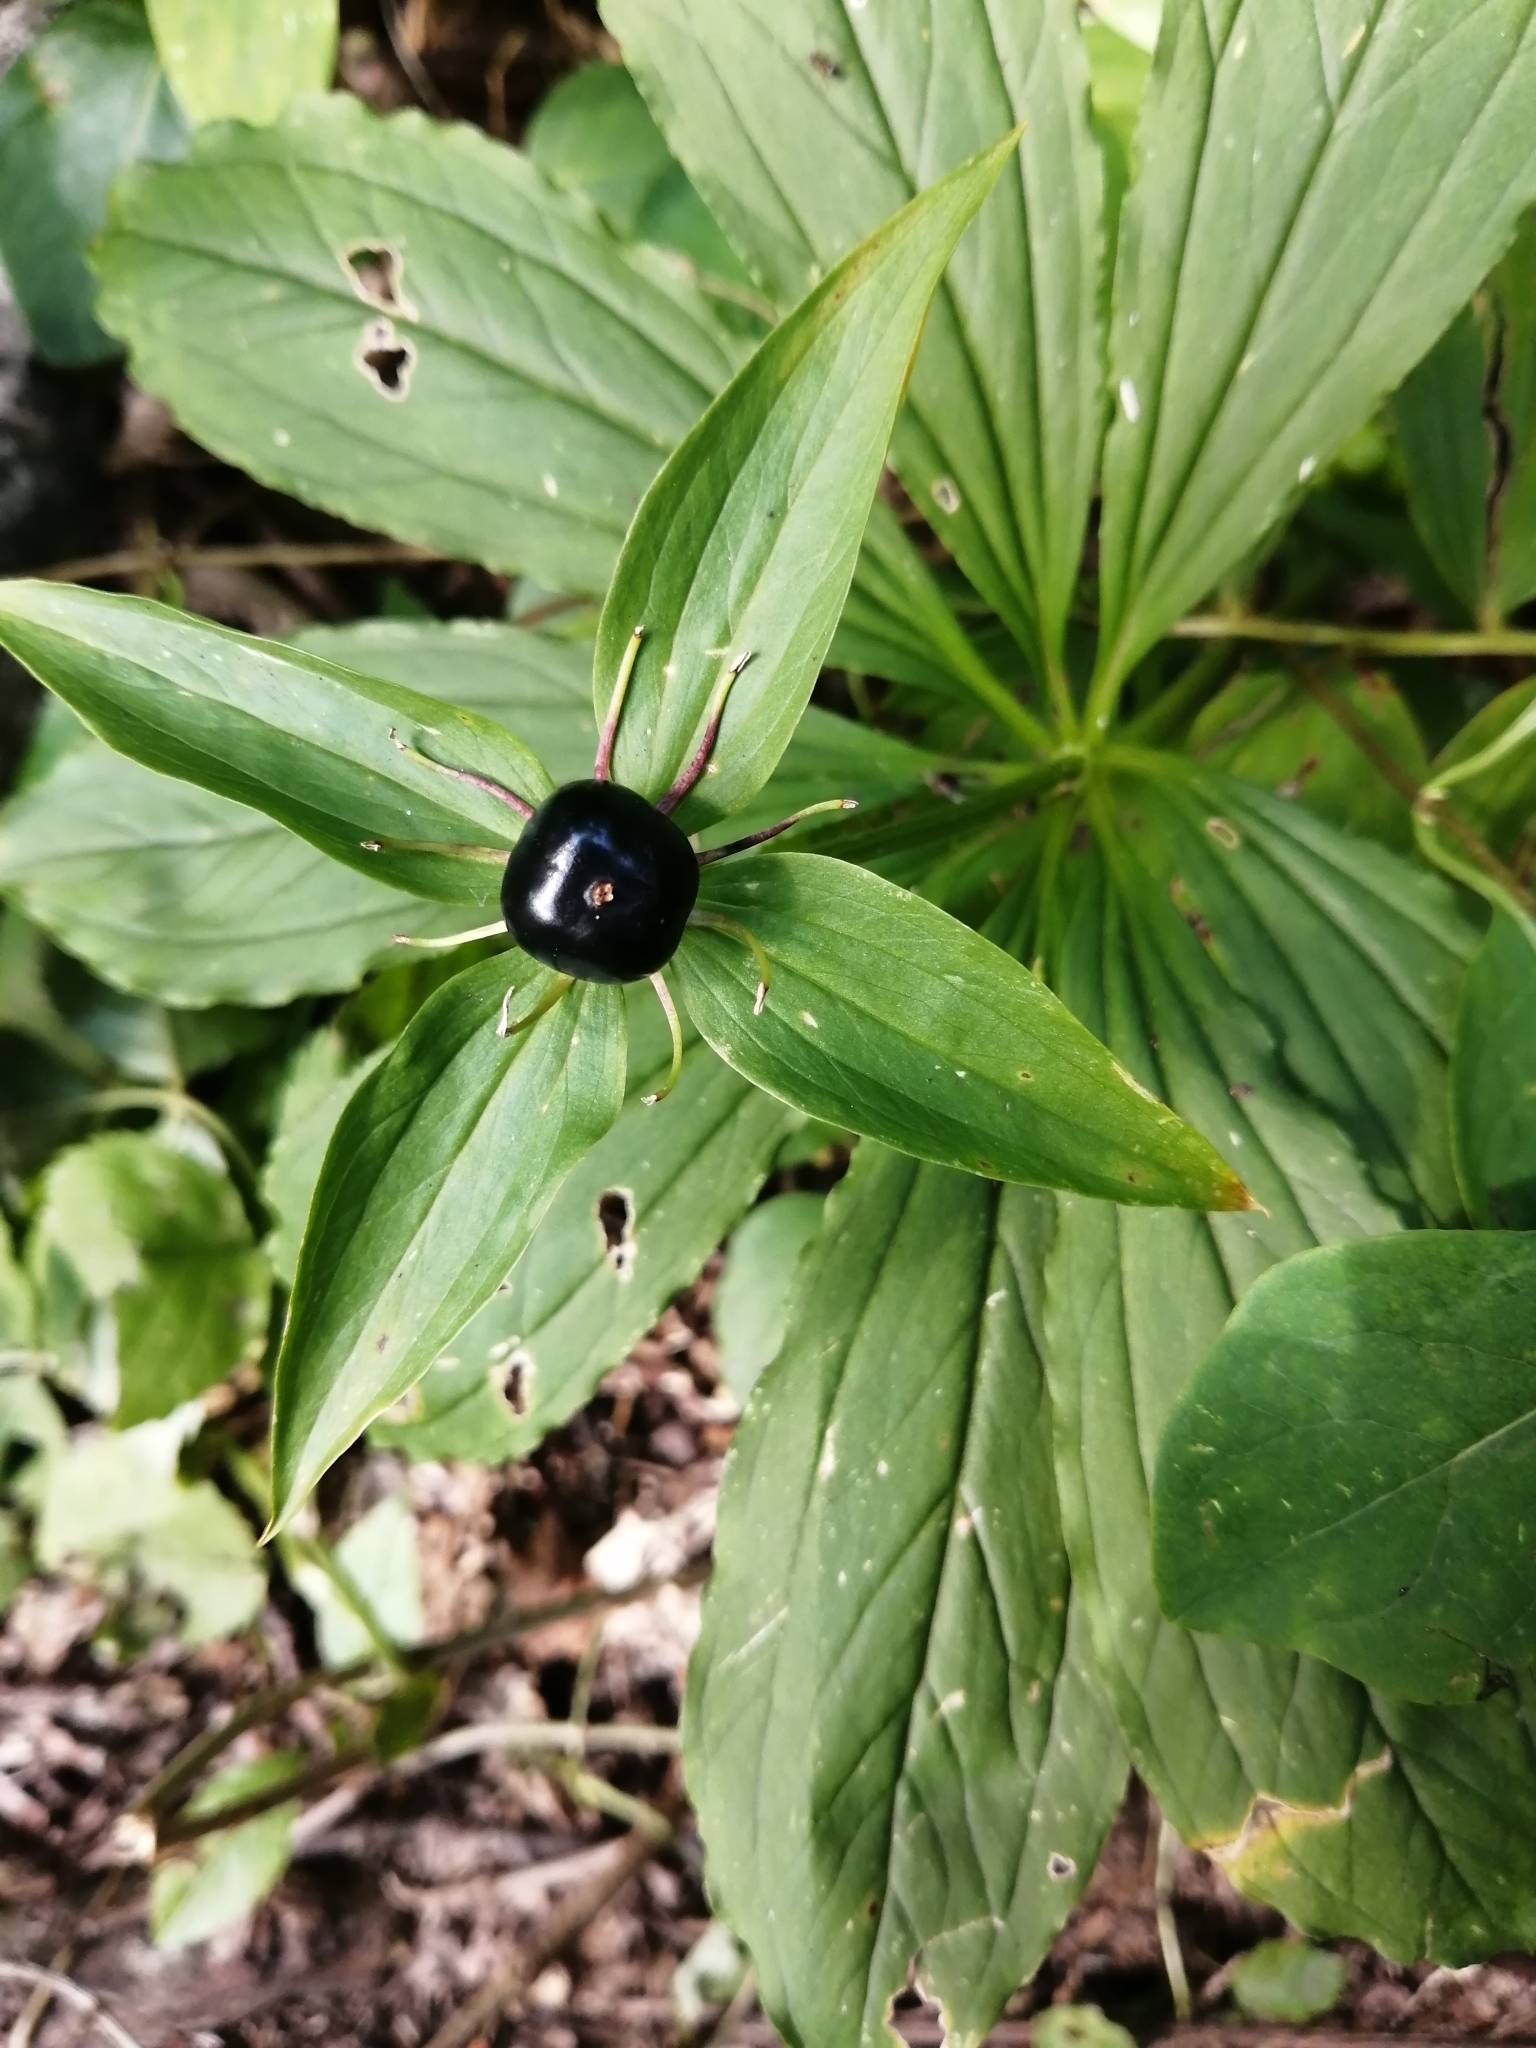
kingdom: Plantae
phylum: Tracheophyta
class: Liliopsida
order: Liliales
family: Melanthiaceae
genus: Paris
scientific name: Paris incompleta
